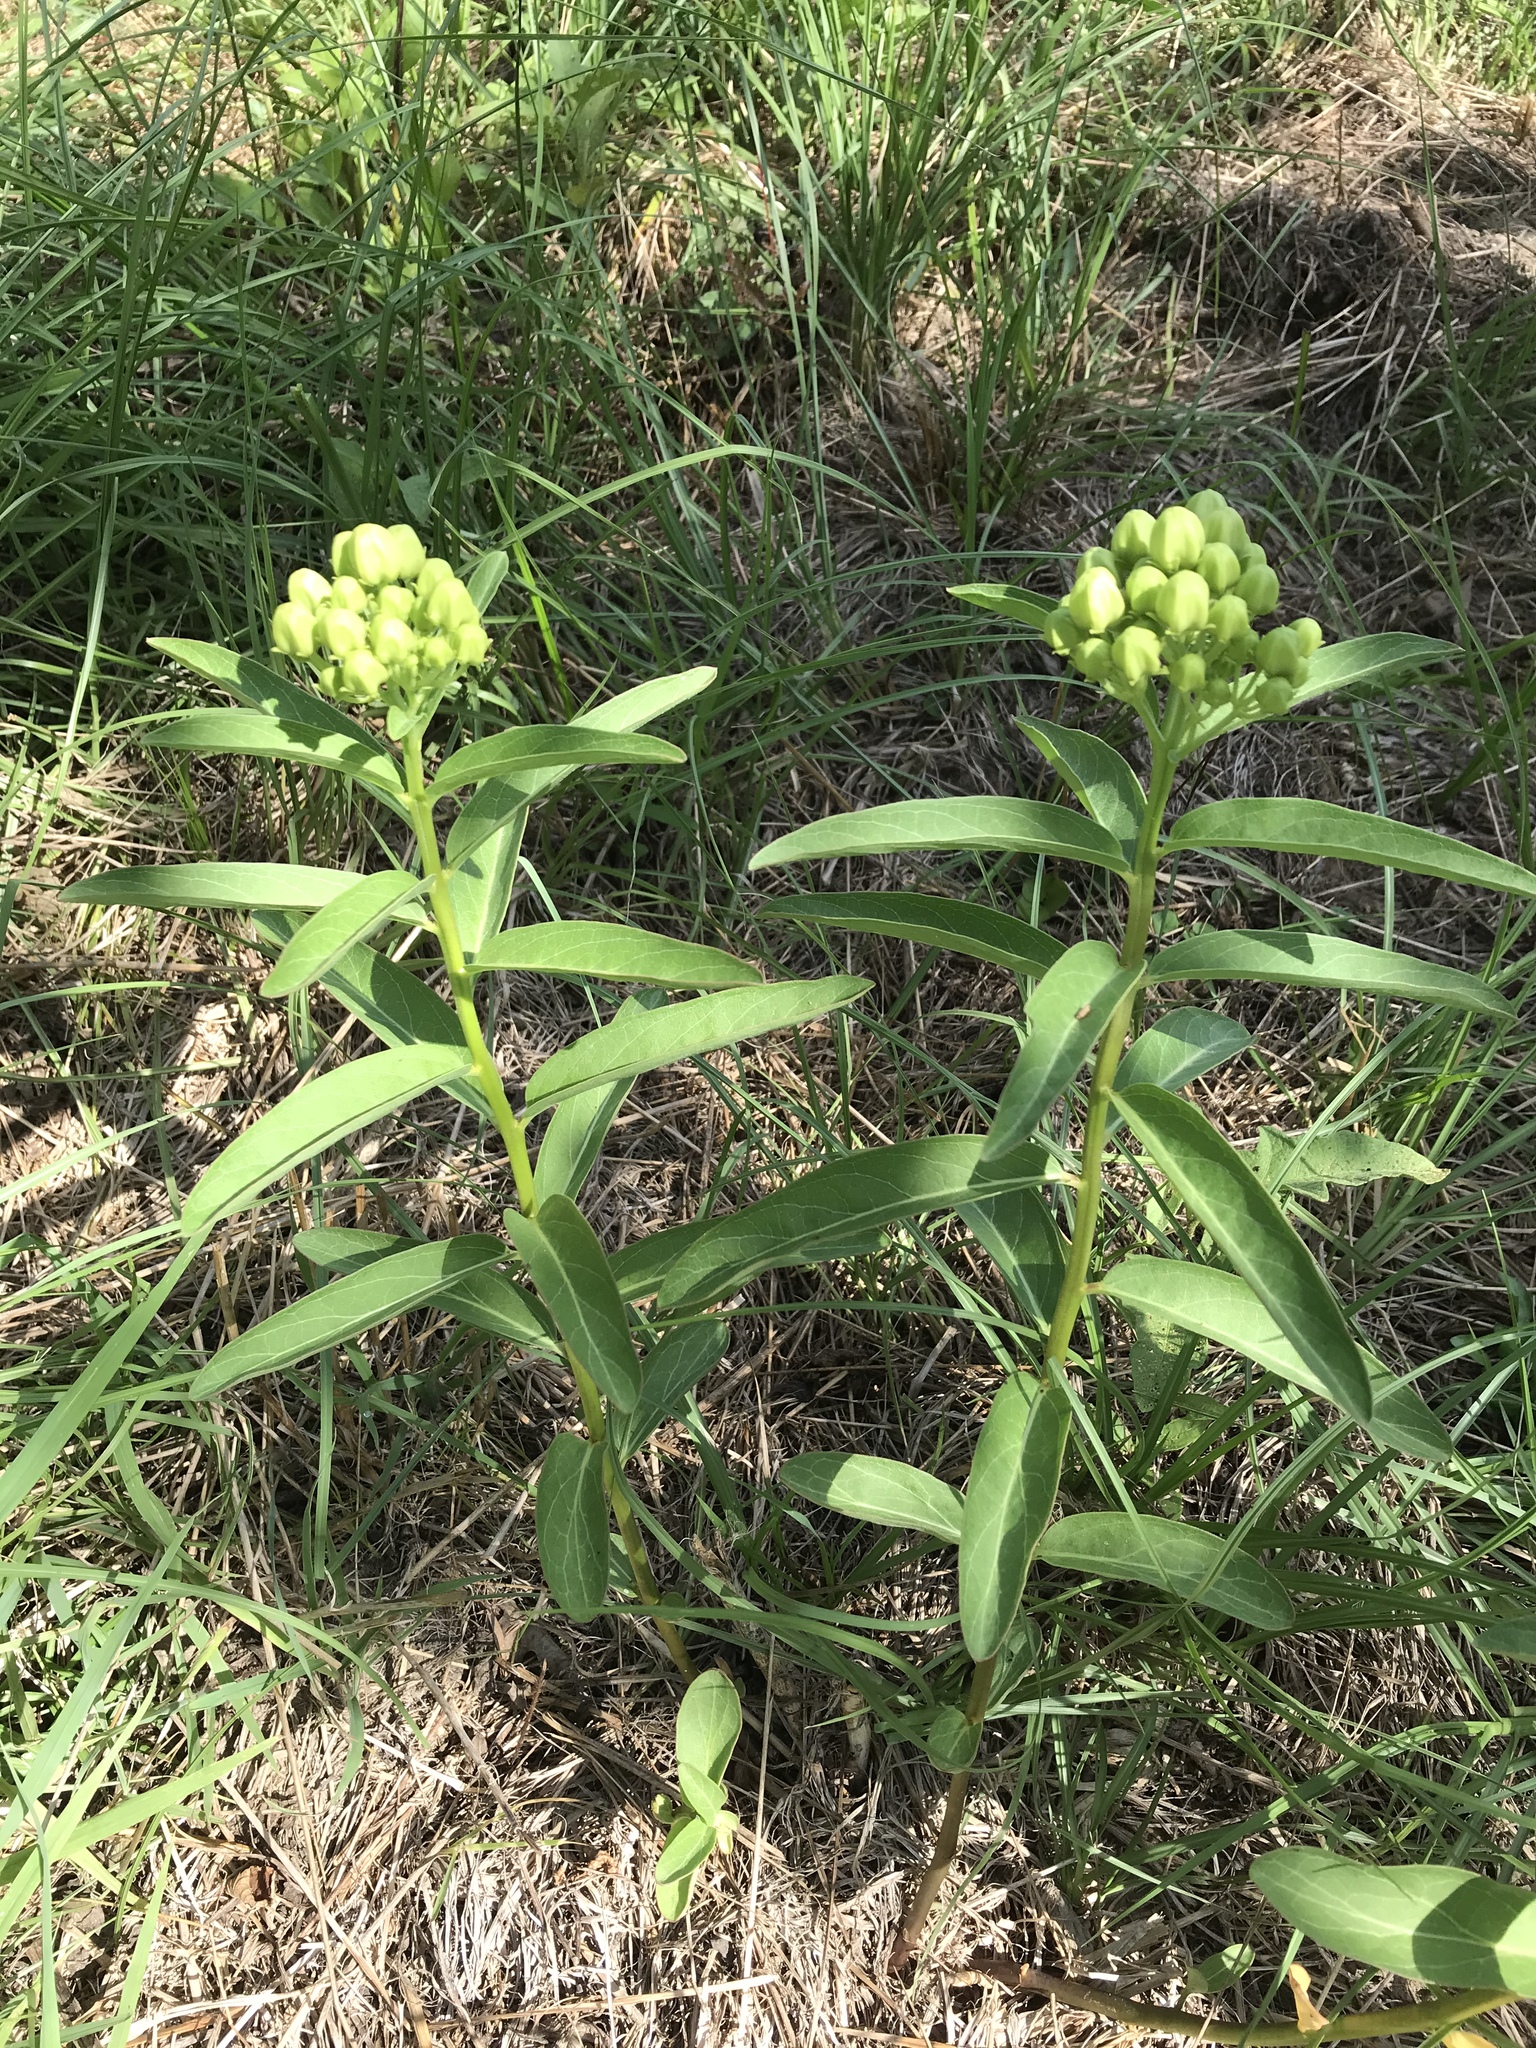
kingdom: Plantae
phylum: Tracheophyta
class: Magnoliopsida
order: Gentianales
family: Apocynaceae
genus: Asclepias
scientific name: Asclepias viridis
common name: Antelope-horns
